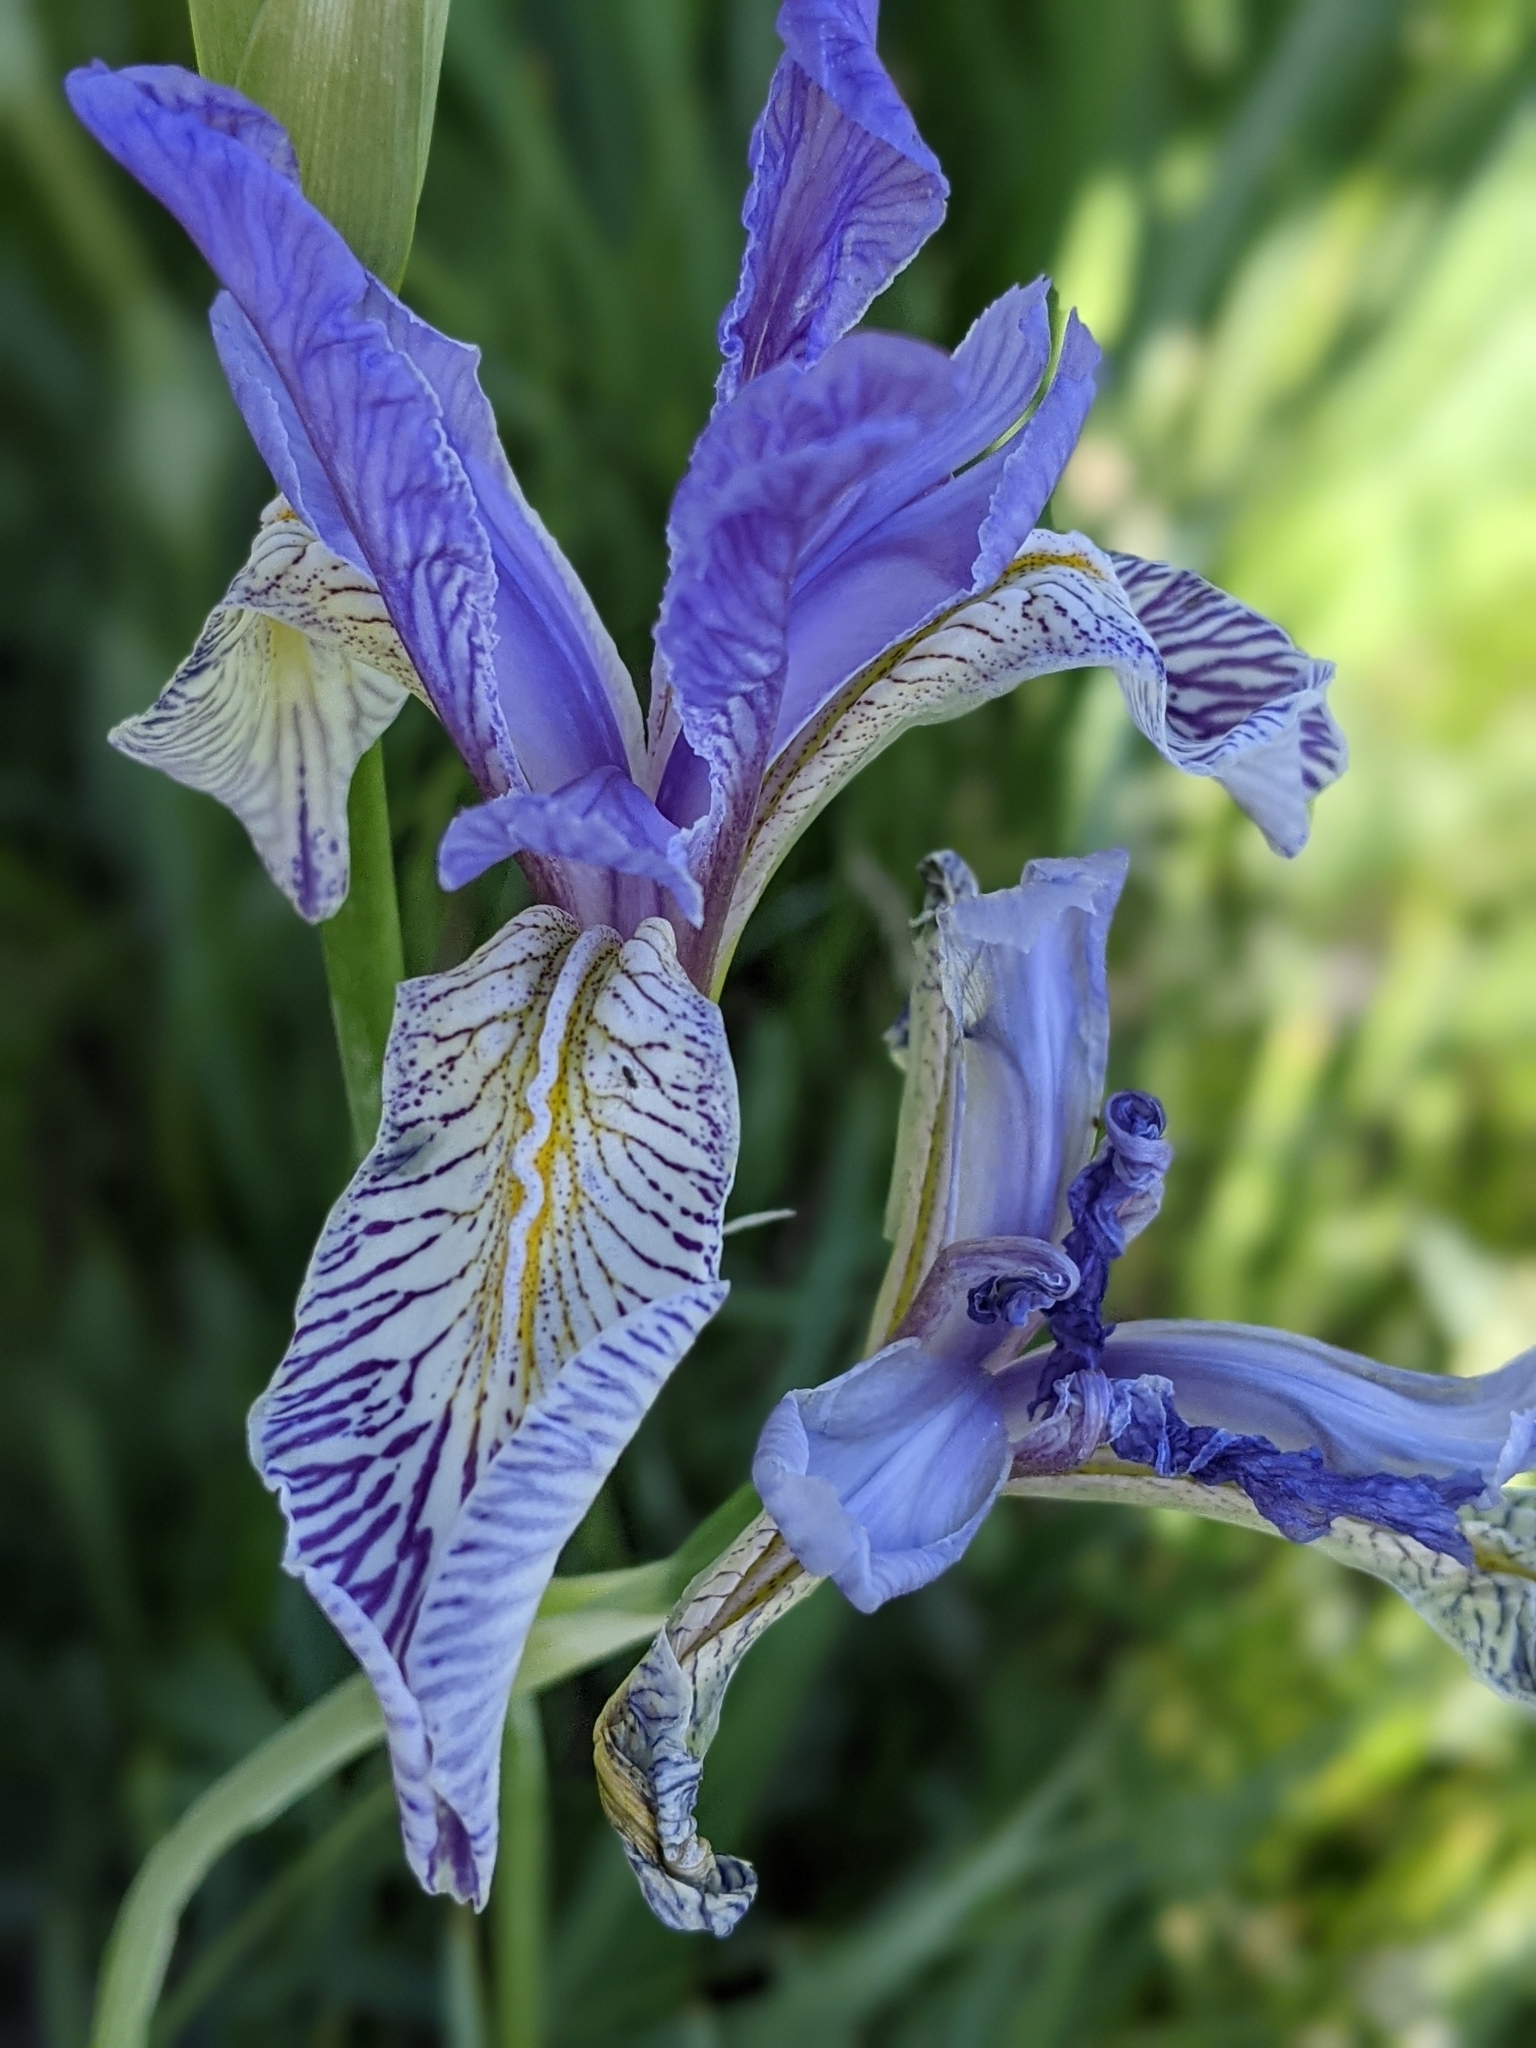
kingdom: Plantae
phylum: Tracheophyta
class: Liliopsida
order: Asparagales
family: Iridaceae
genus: Iris
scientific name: Iris missouriensis
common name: Rocky mountain iris
